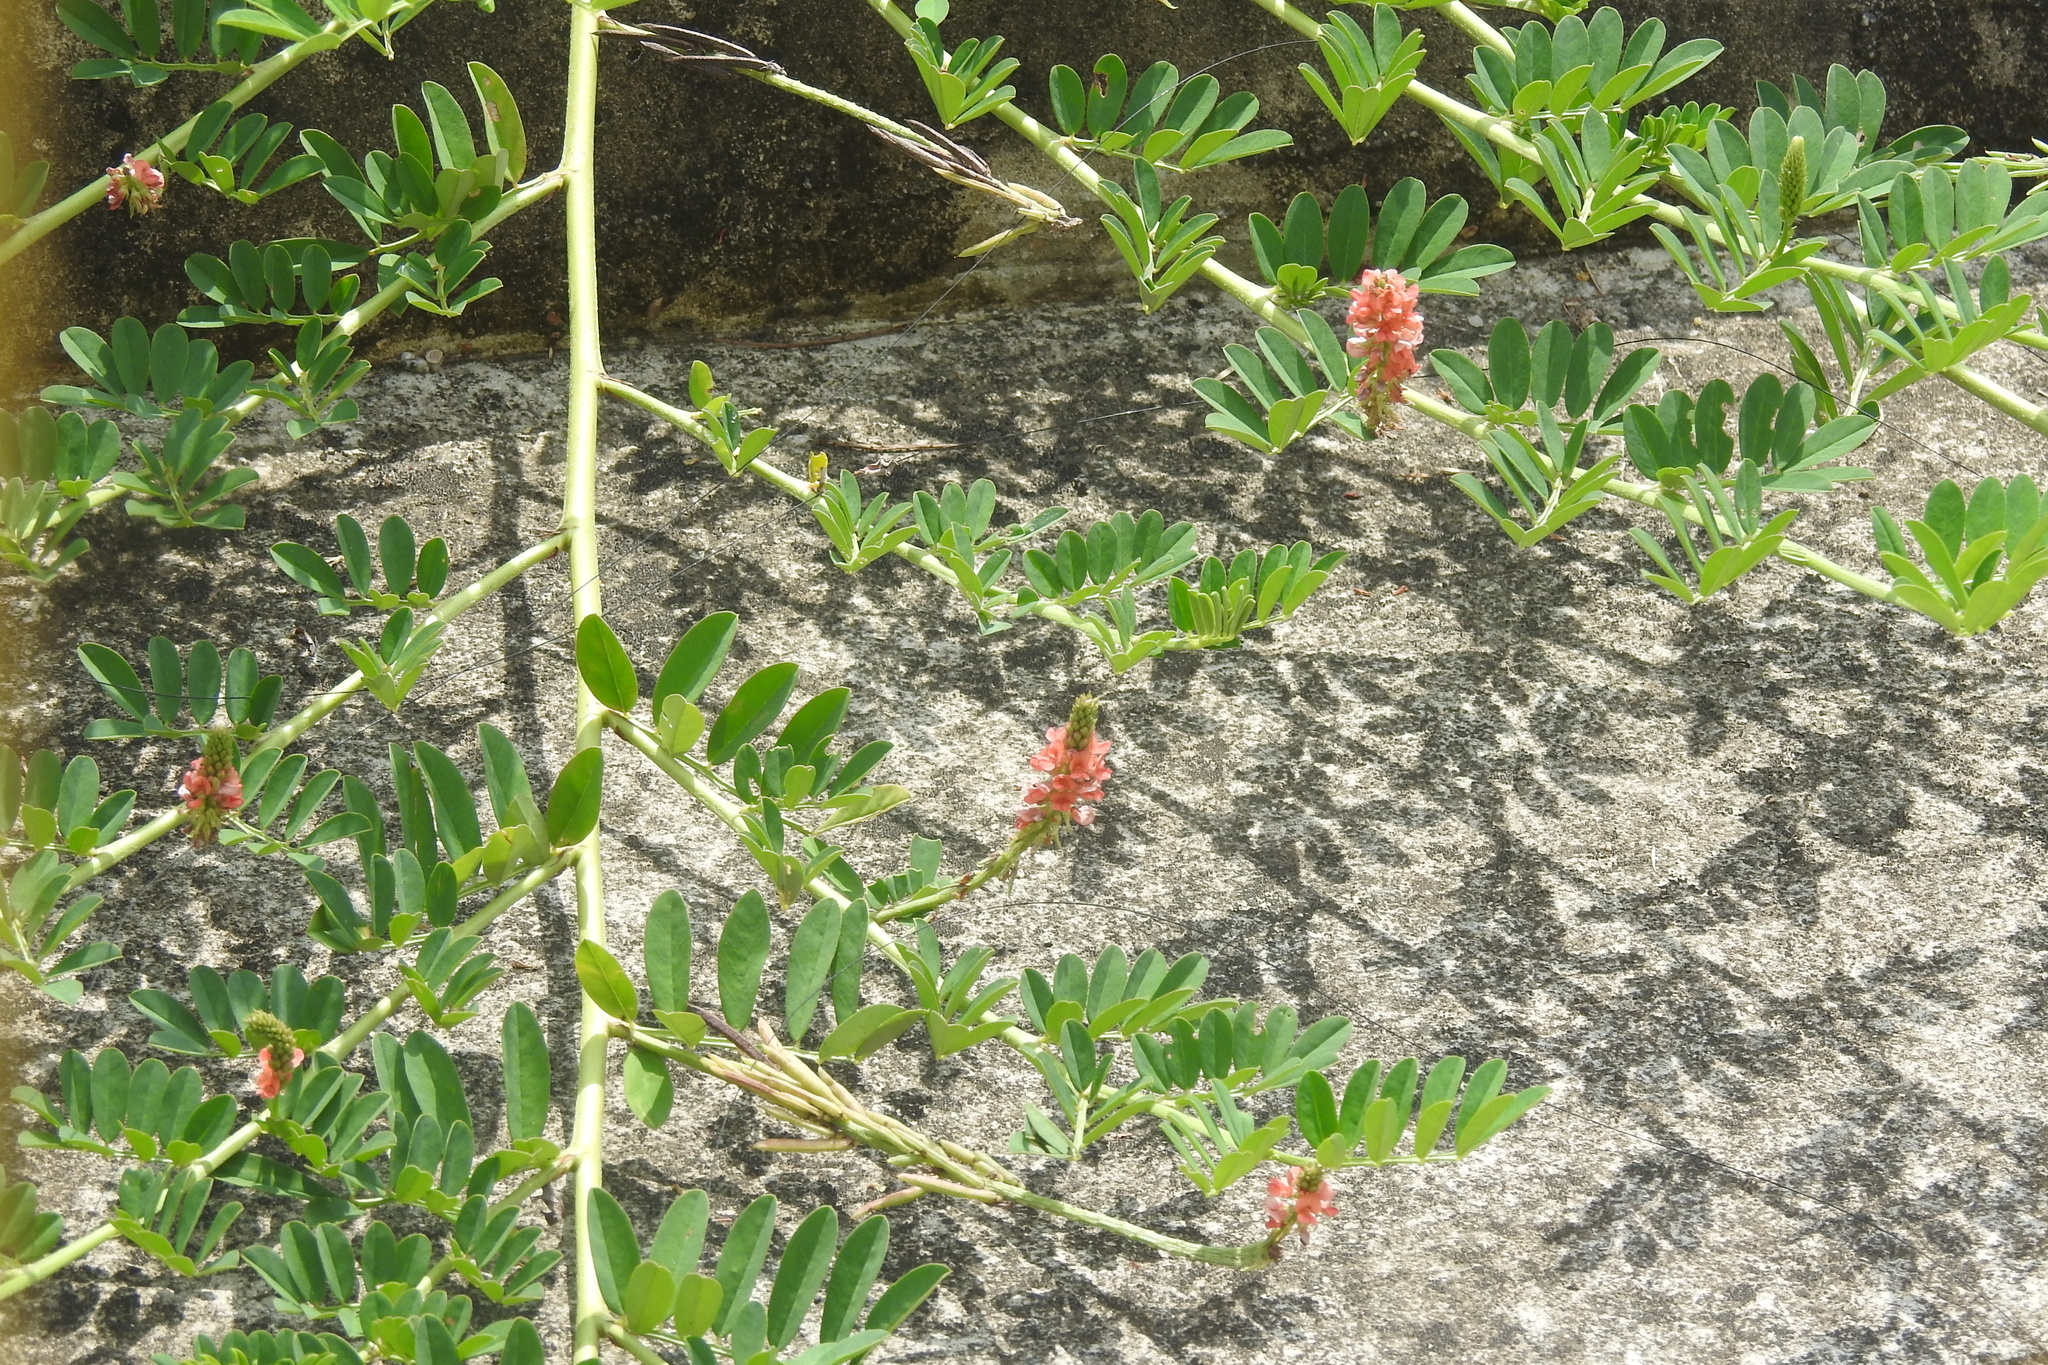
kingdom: Plantae
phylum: Tracheophyta
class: Magnoliopsida
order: Fabales
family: Fabaceae
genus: Indigofera
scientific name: Indigofera hendecaphylla
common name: Trailing indigo
